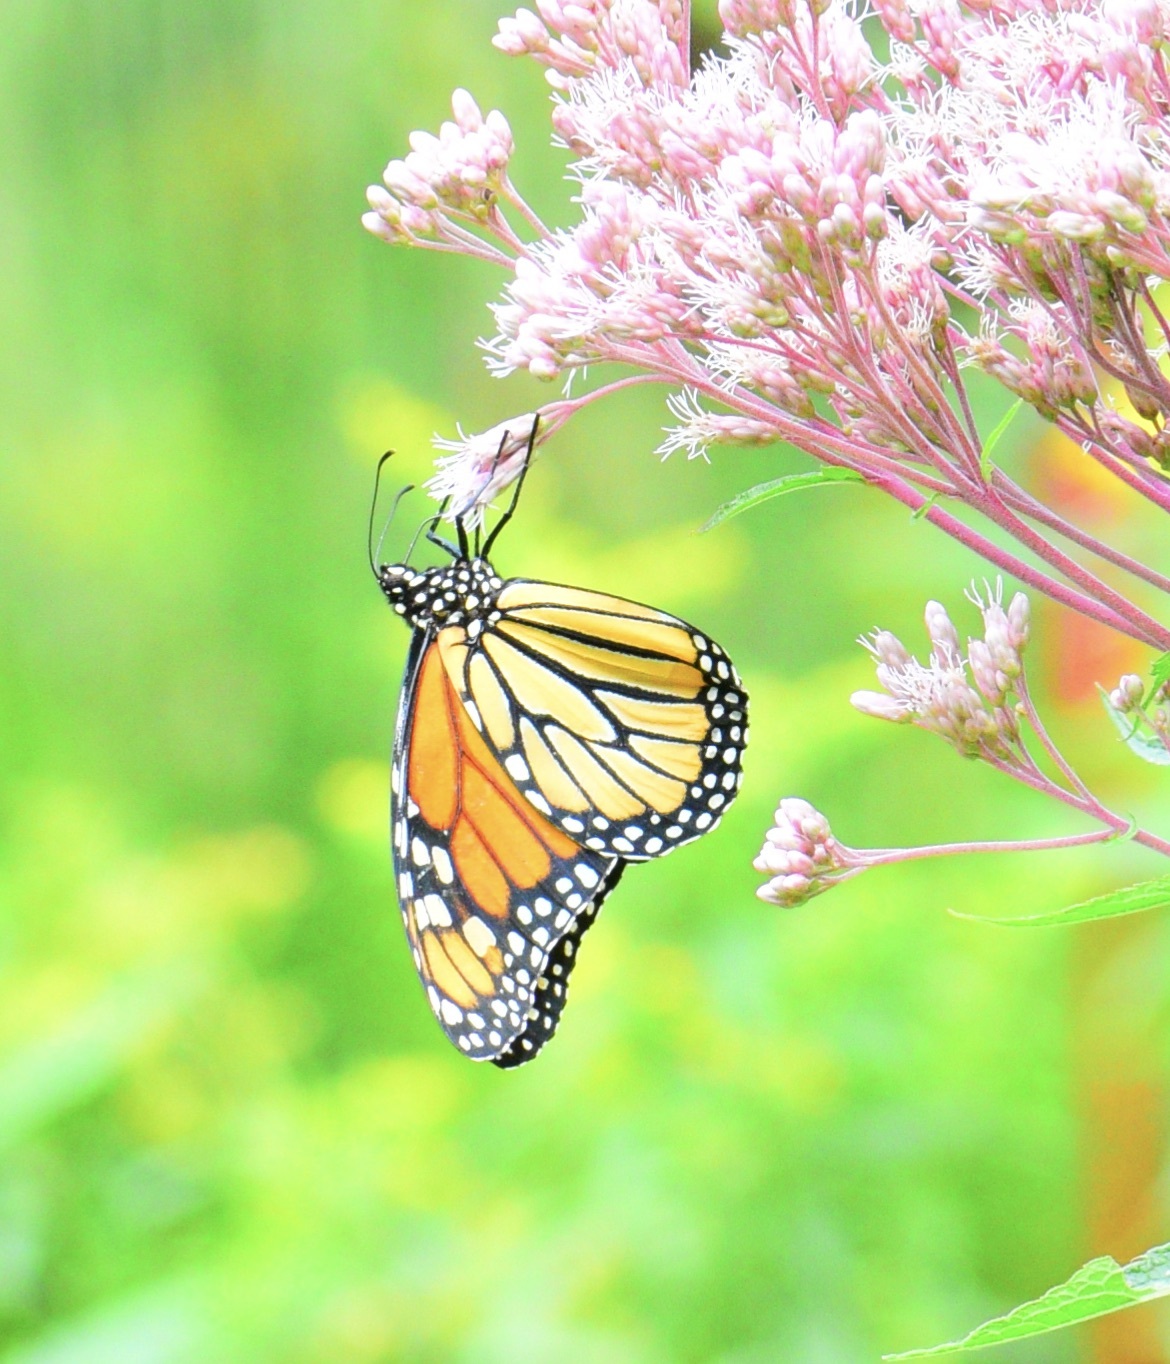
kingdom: Animalia
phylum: Arthropoda
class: Insecta
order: Lepidoptera
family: Nymphalidae
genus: Danaus
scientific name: Danaus plexippus
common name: Monarch
